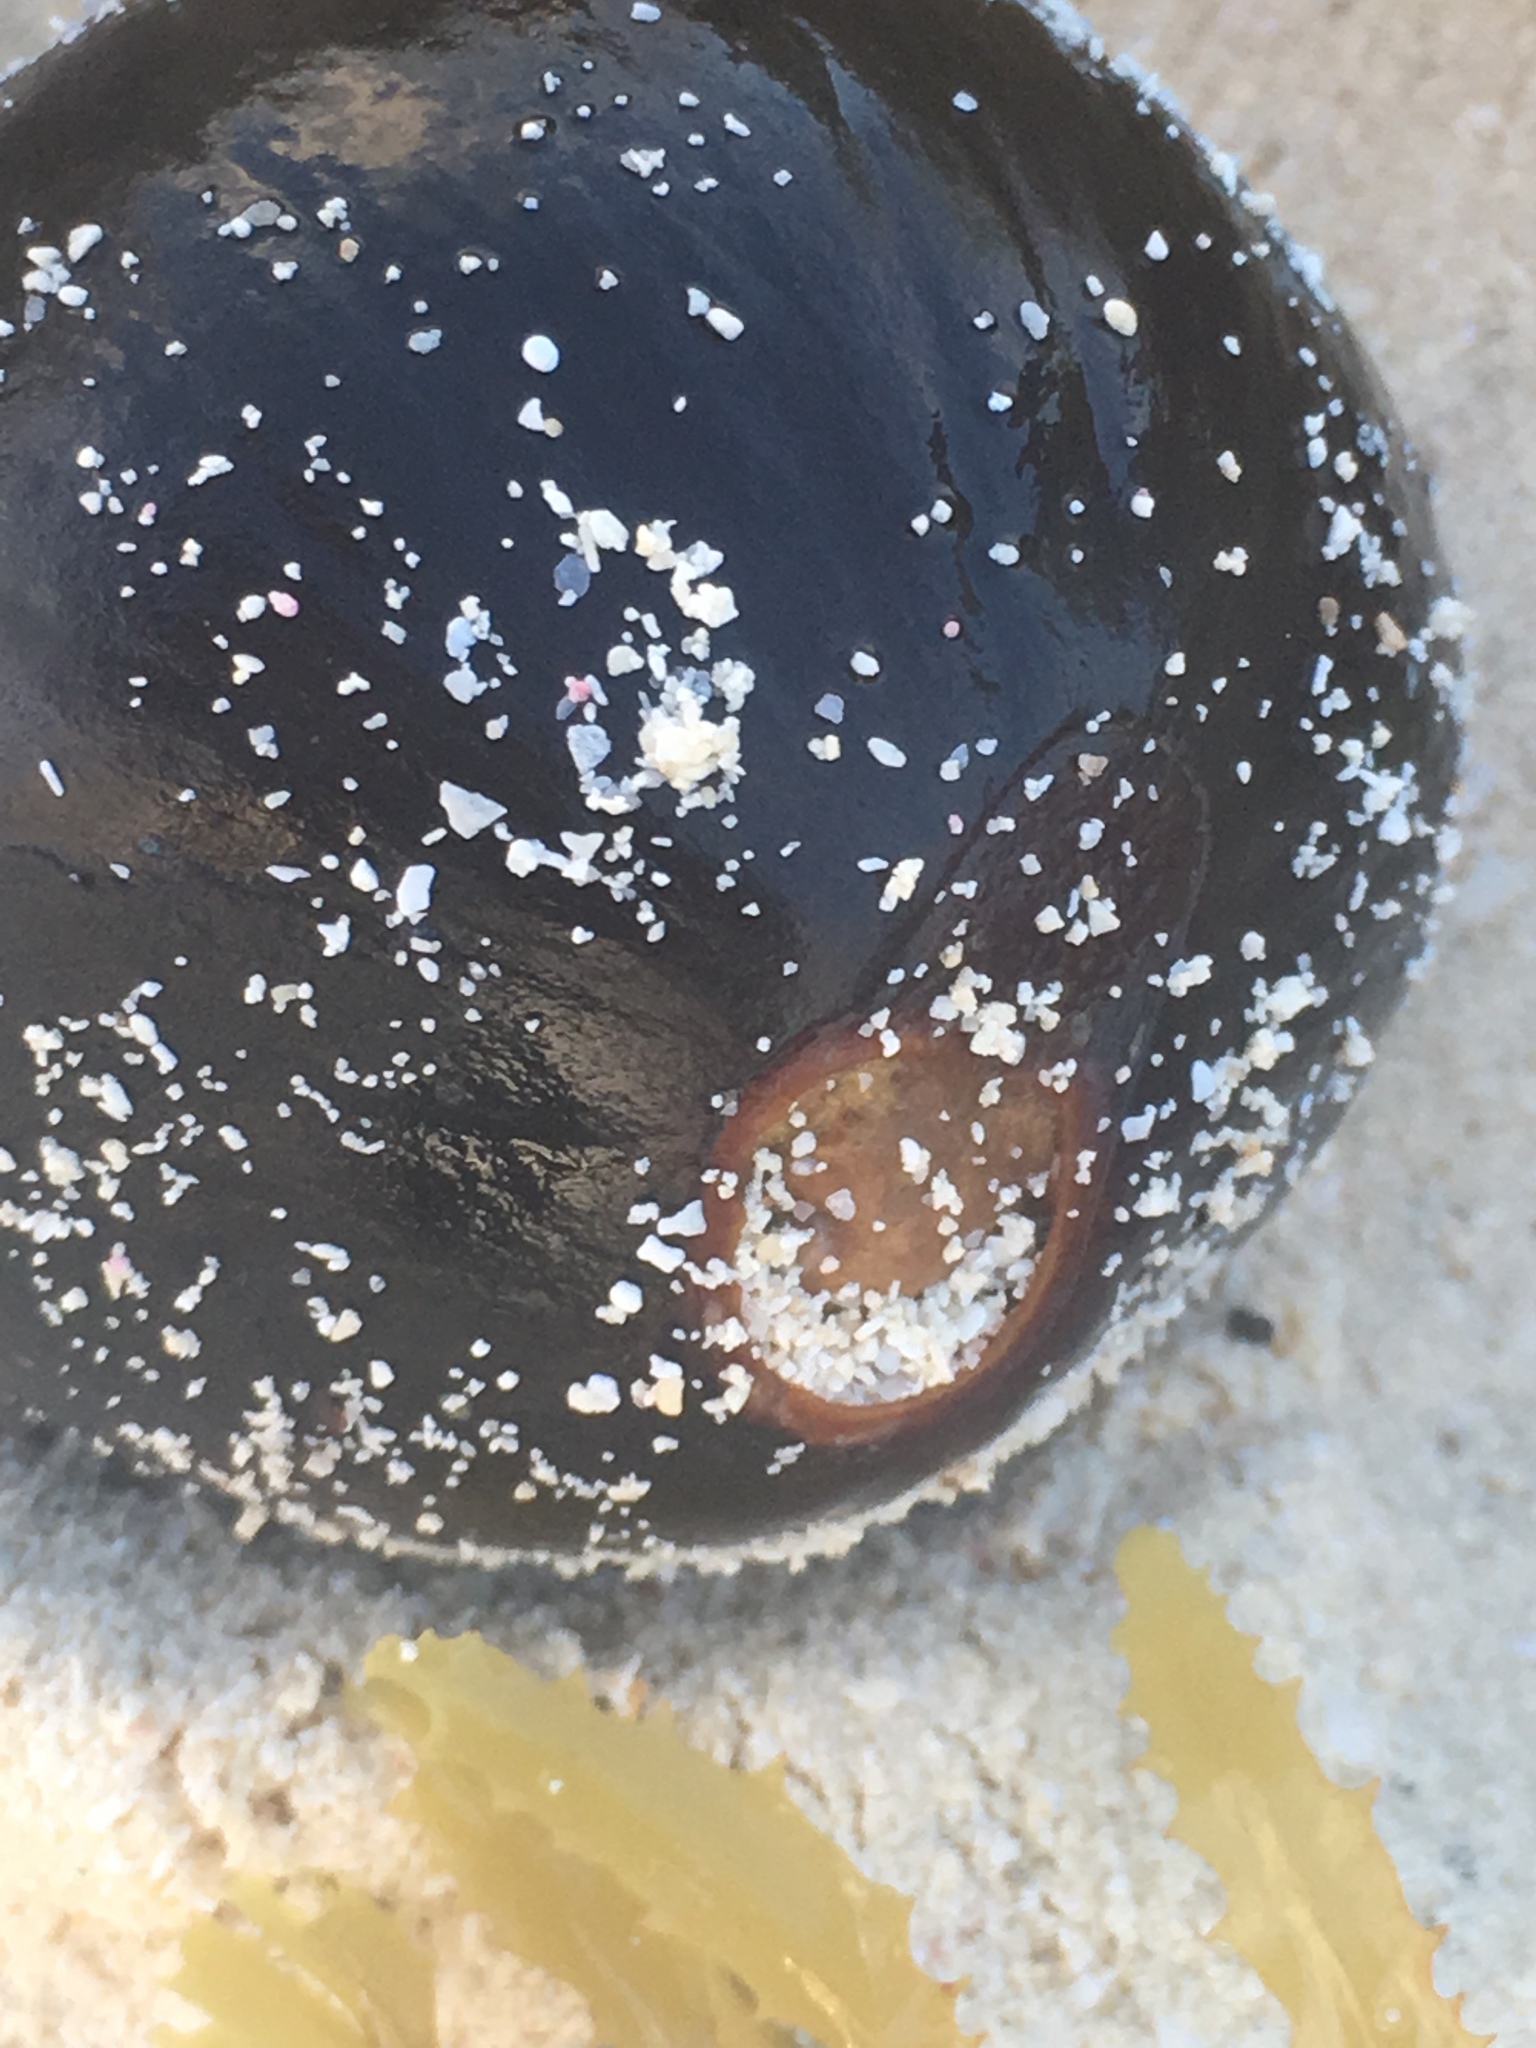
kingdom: Plantae
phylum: Tracheophyta
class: Liliopsida
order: Arecales
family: Arecaceae
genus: Manicaria
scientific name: Manicaria saccifera
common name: Sea coconut
